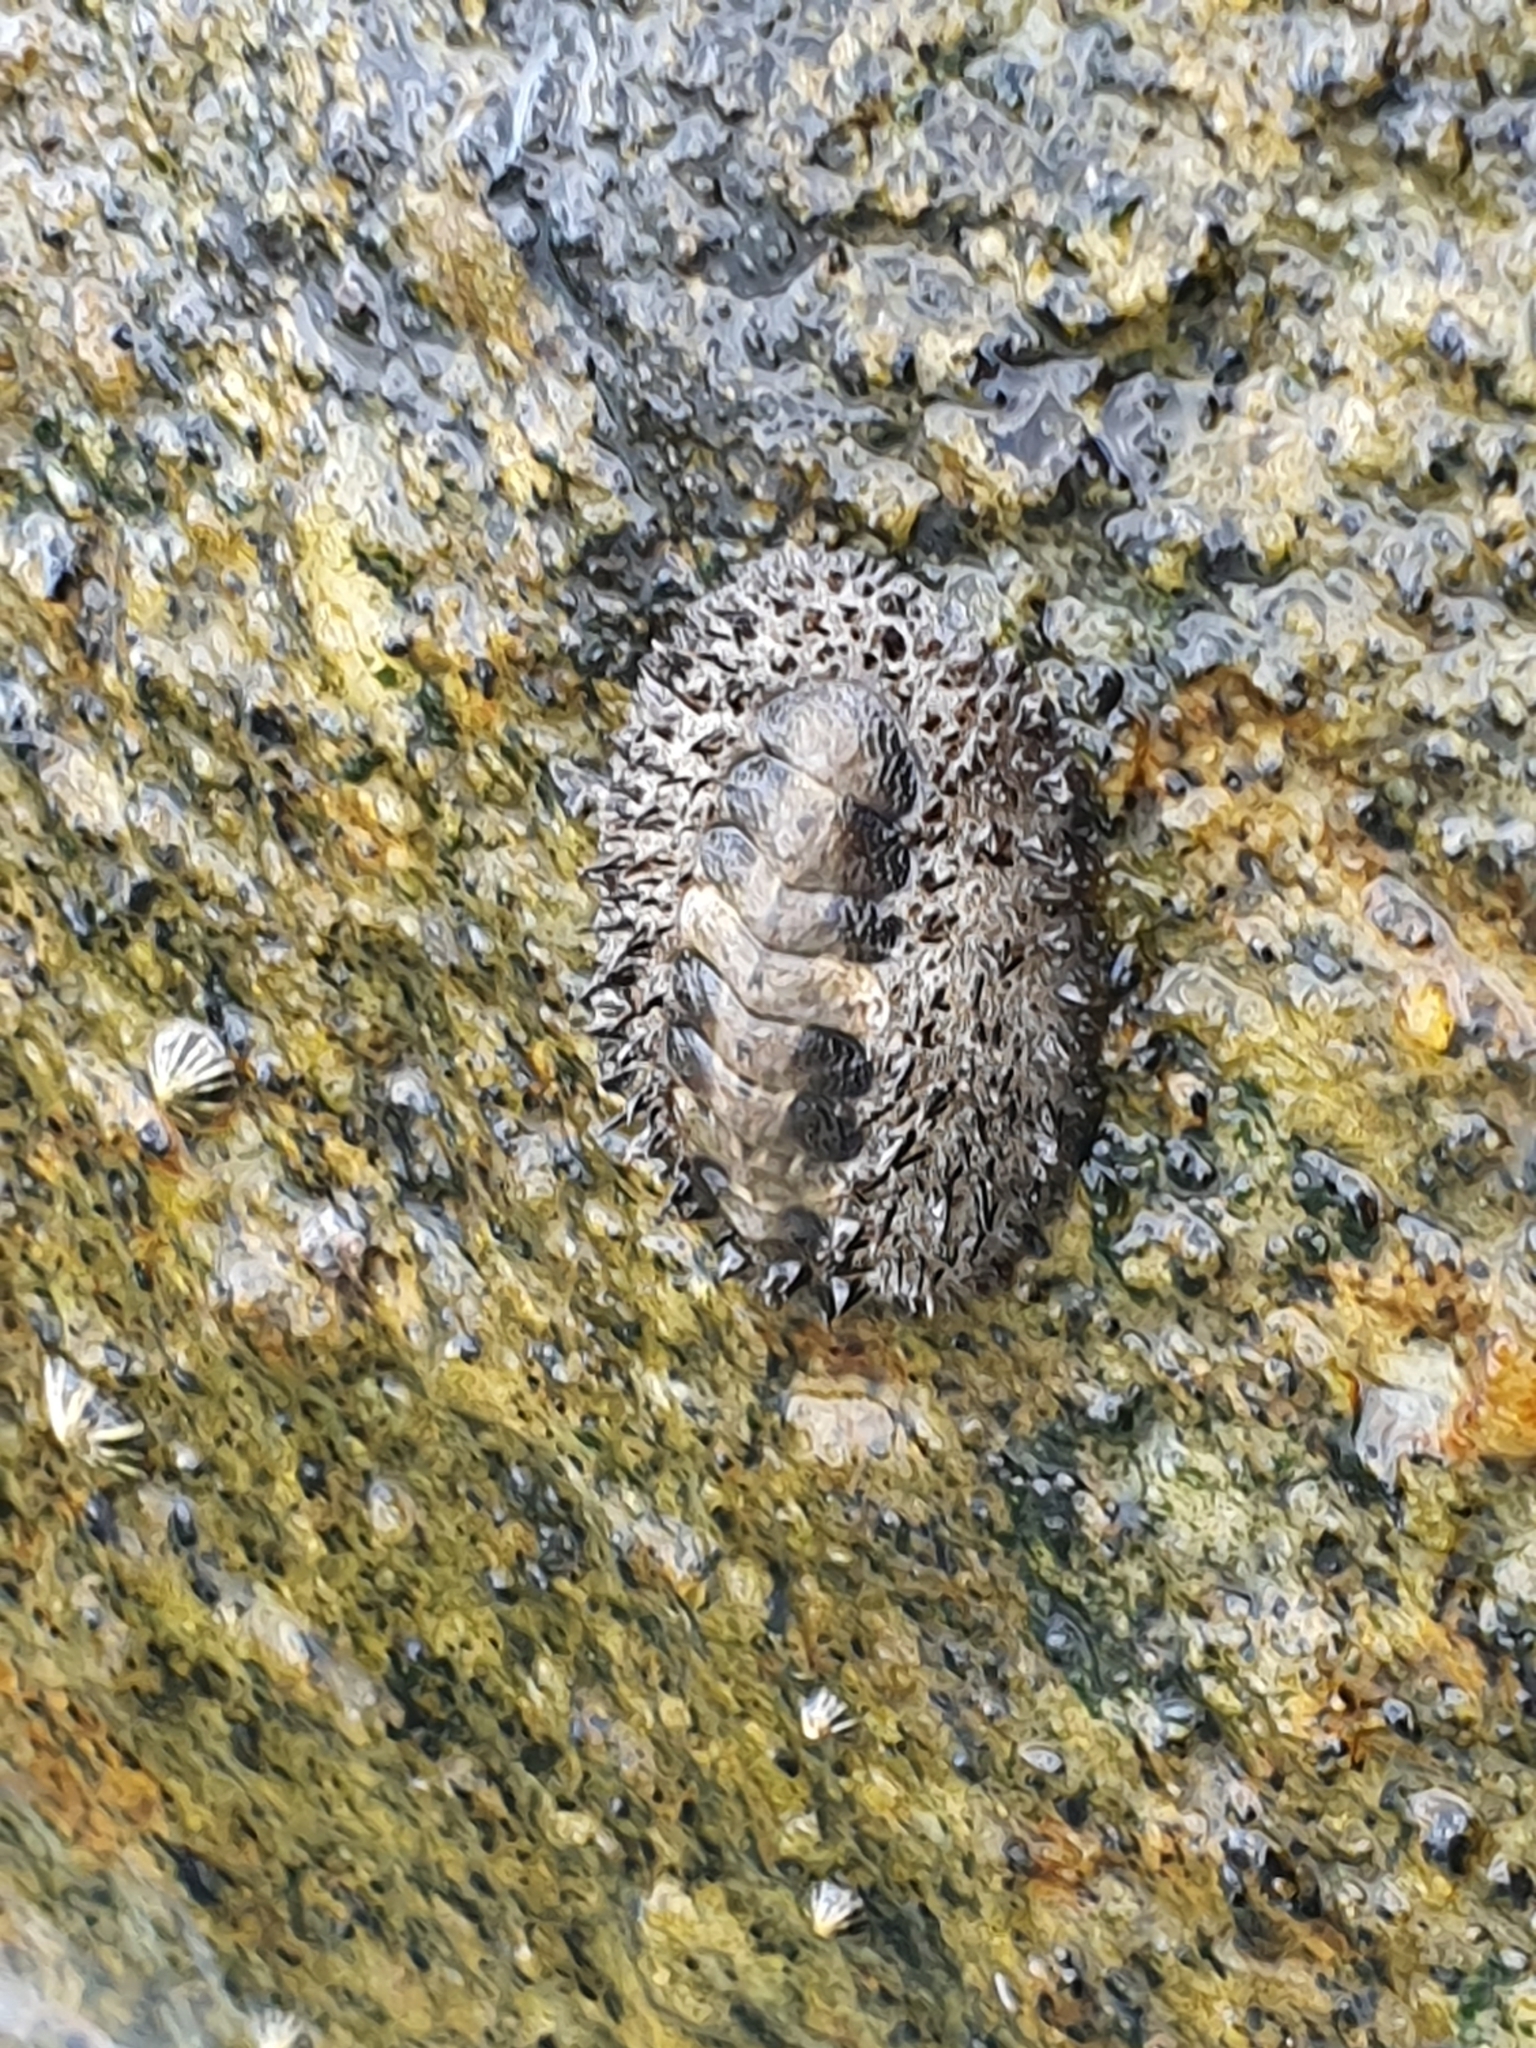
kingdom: Animalia
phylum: Mollusca
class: Polyplacophora
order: Chitonida
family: Chitonidae
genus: Acanthopleura
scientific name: Acanthopleura gemmata
